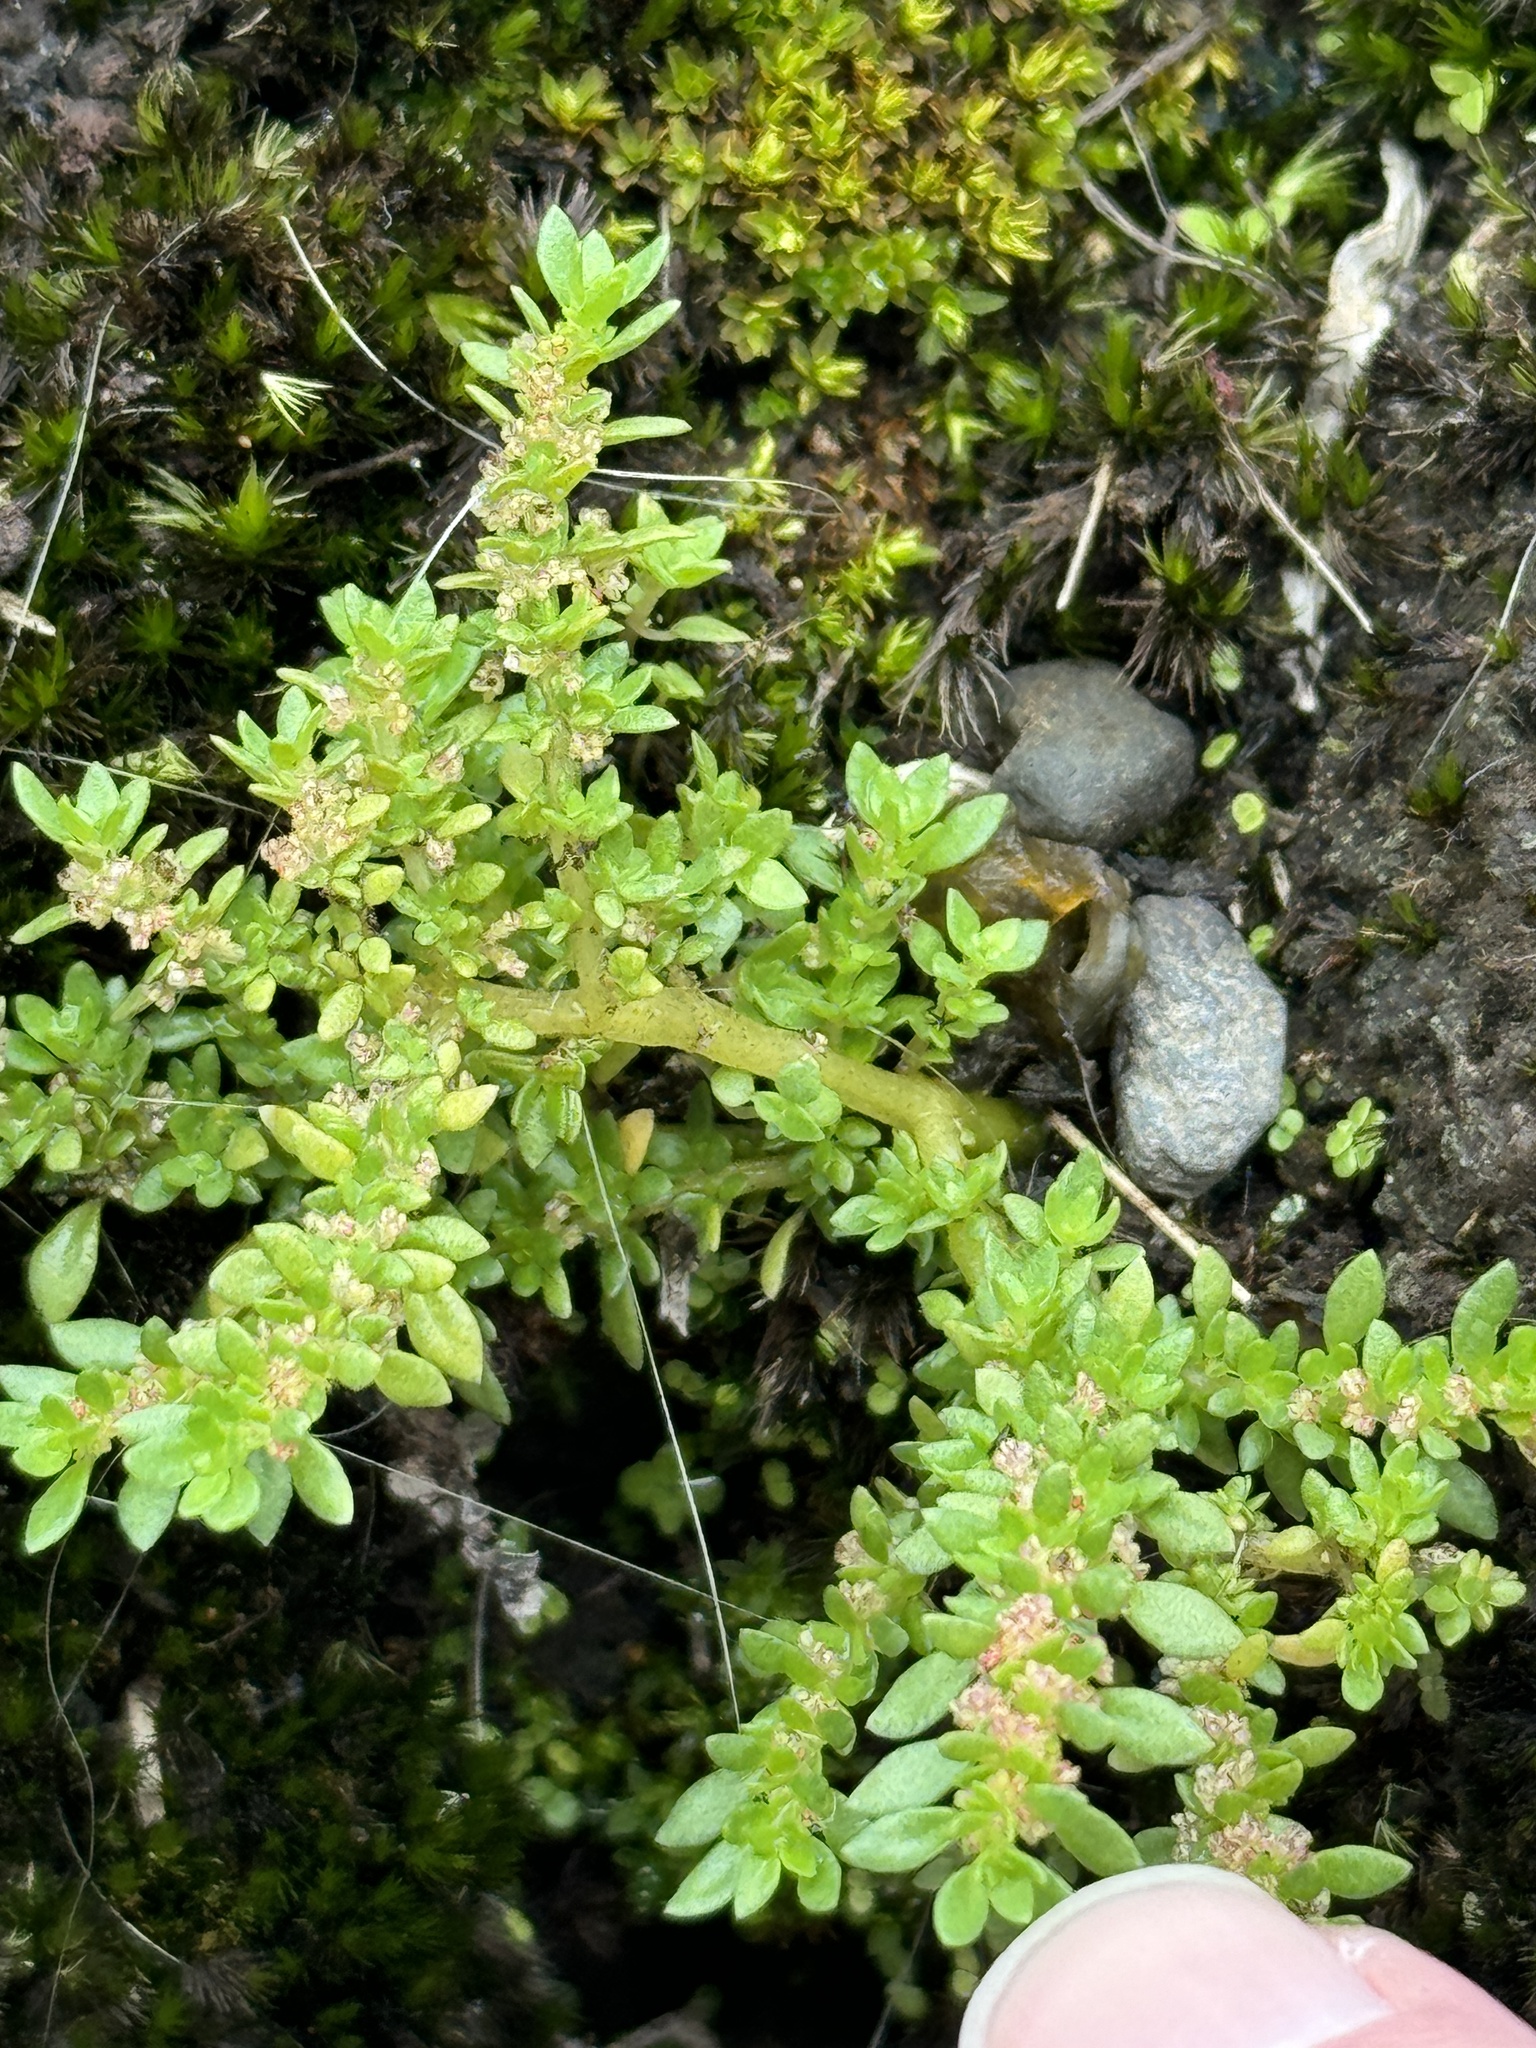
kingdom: Plantae
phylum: Tracheophyta
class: Magnoliopsida
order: Rosales
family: Urticaceae
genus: Pilea
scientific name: Pilea microphylla
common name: Artillery-plant
